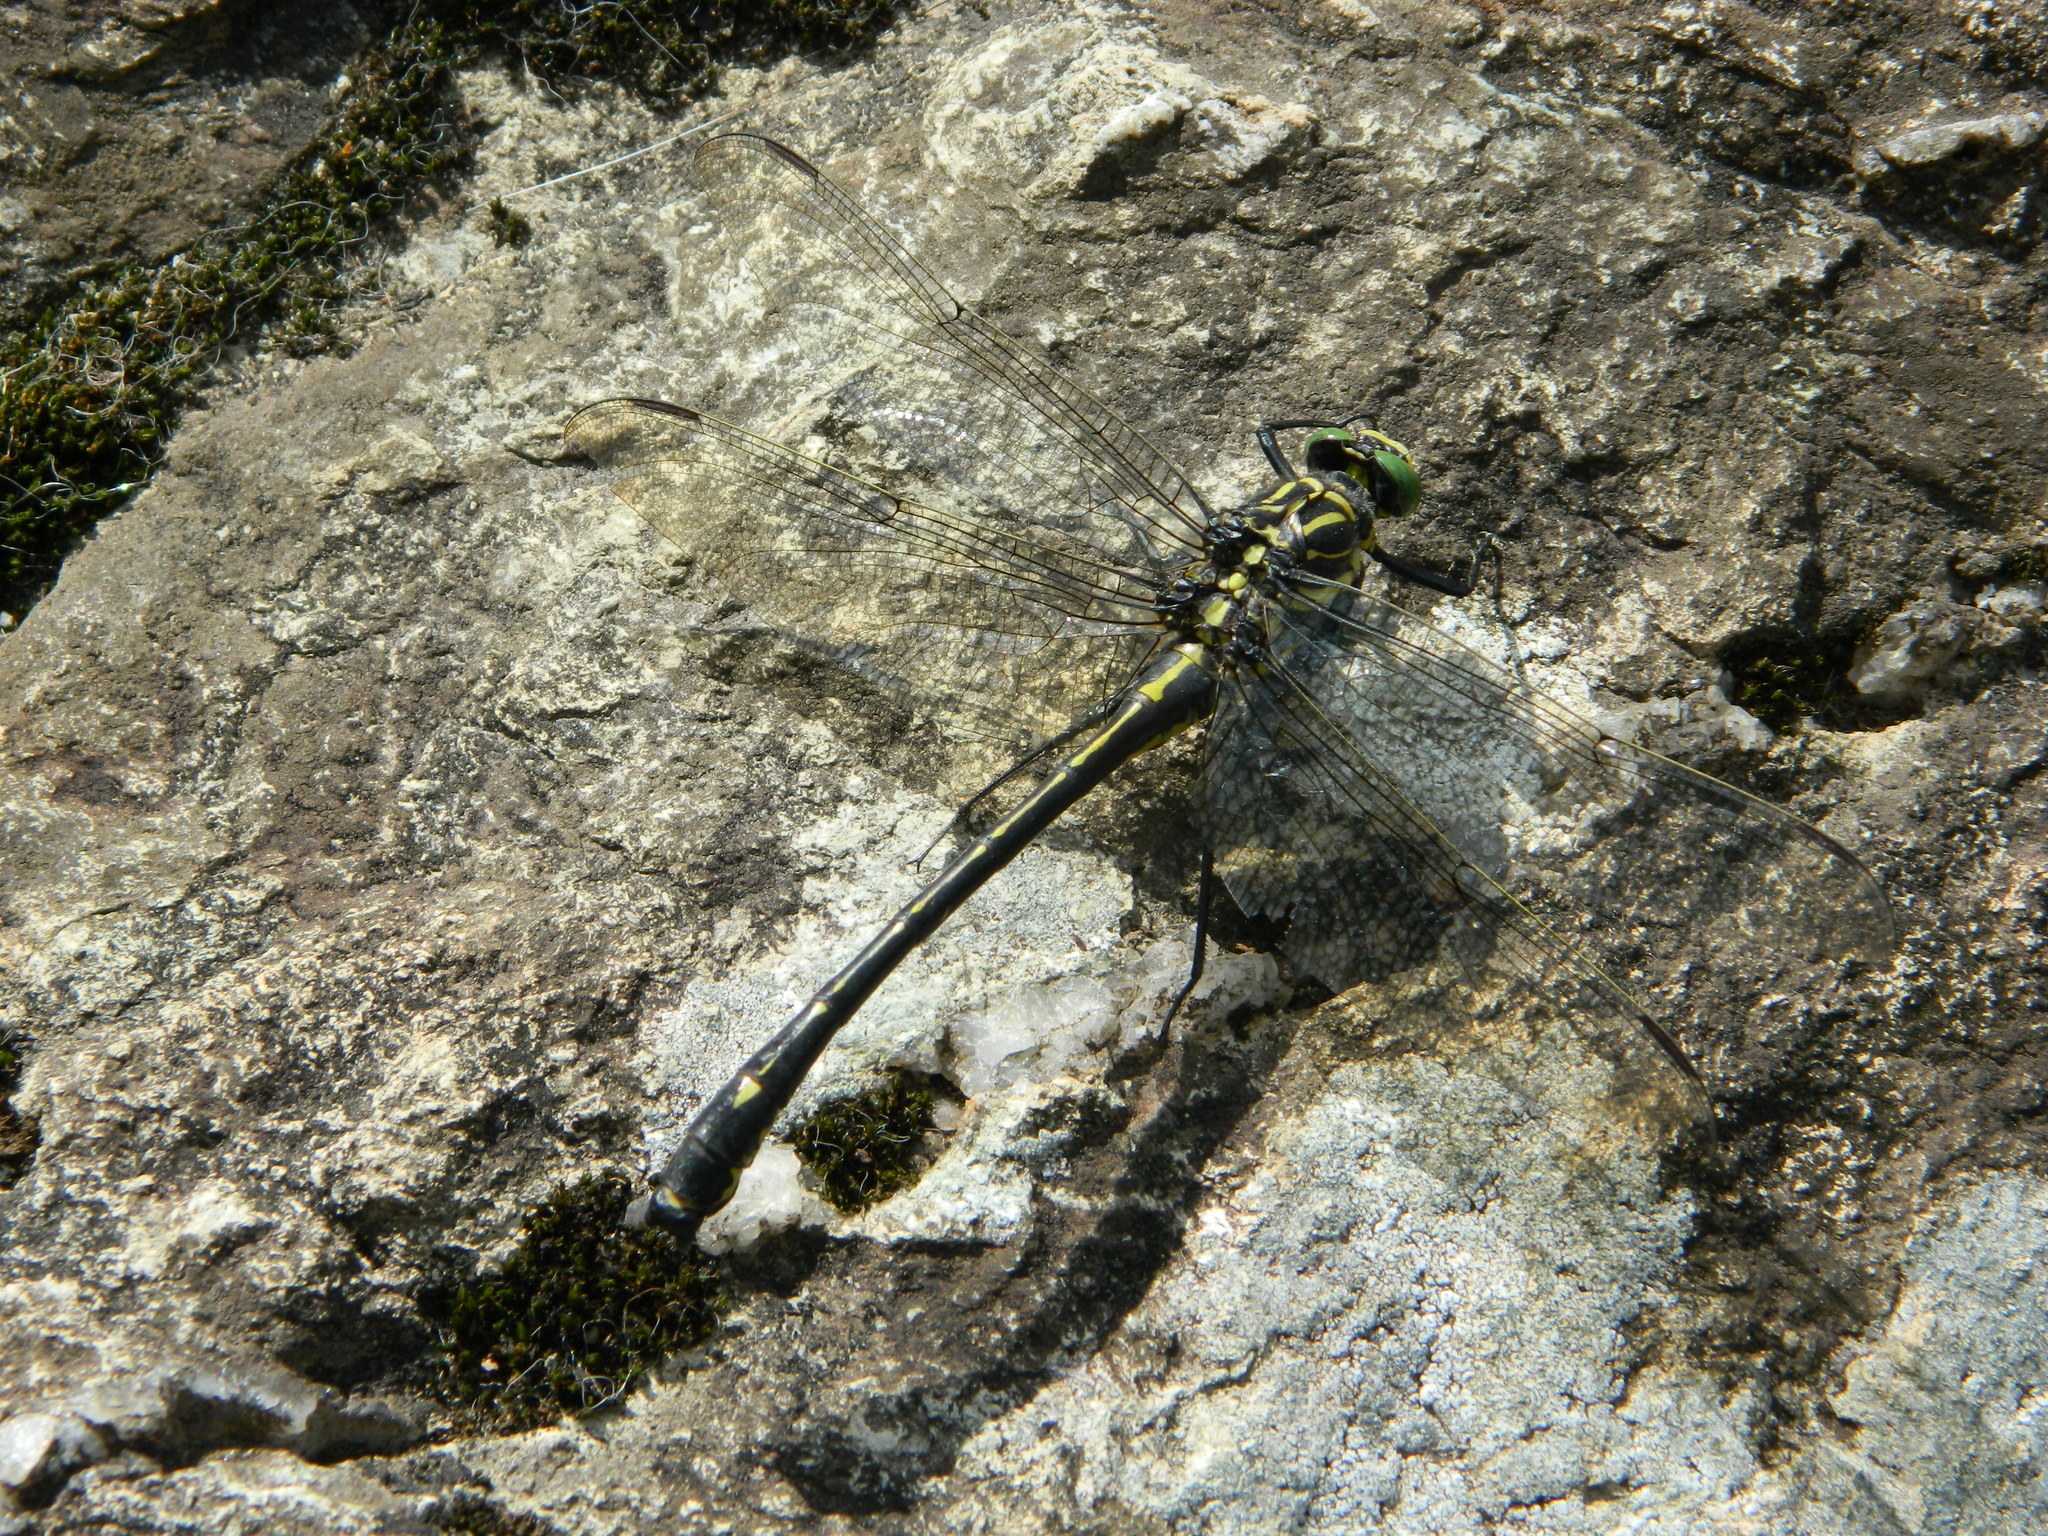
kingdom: Animalia
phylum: Arthropoda
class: Insecta
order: Odonata
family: Gomphidae
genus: Hagenius
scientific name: Hagenius brevistylus
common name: Dragonhunter
